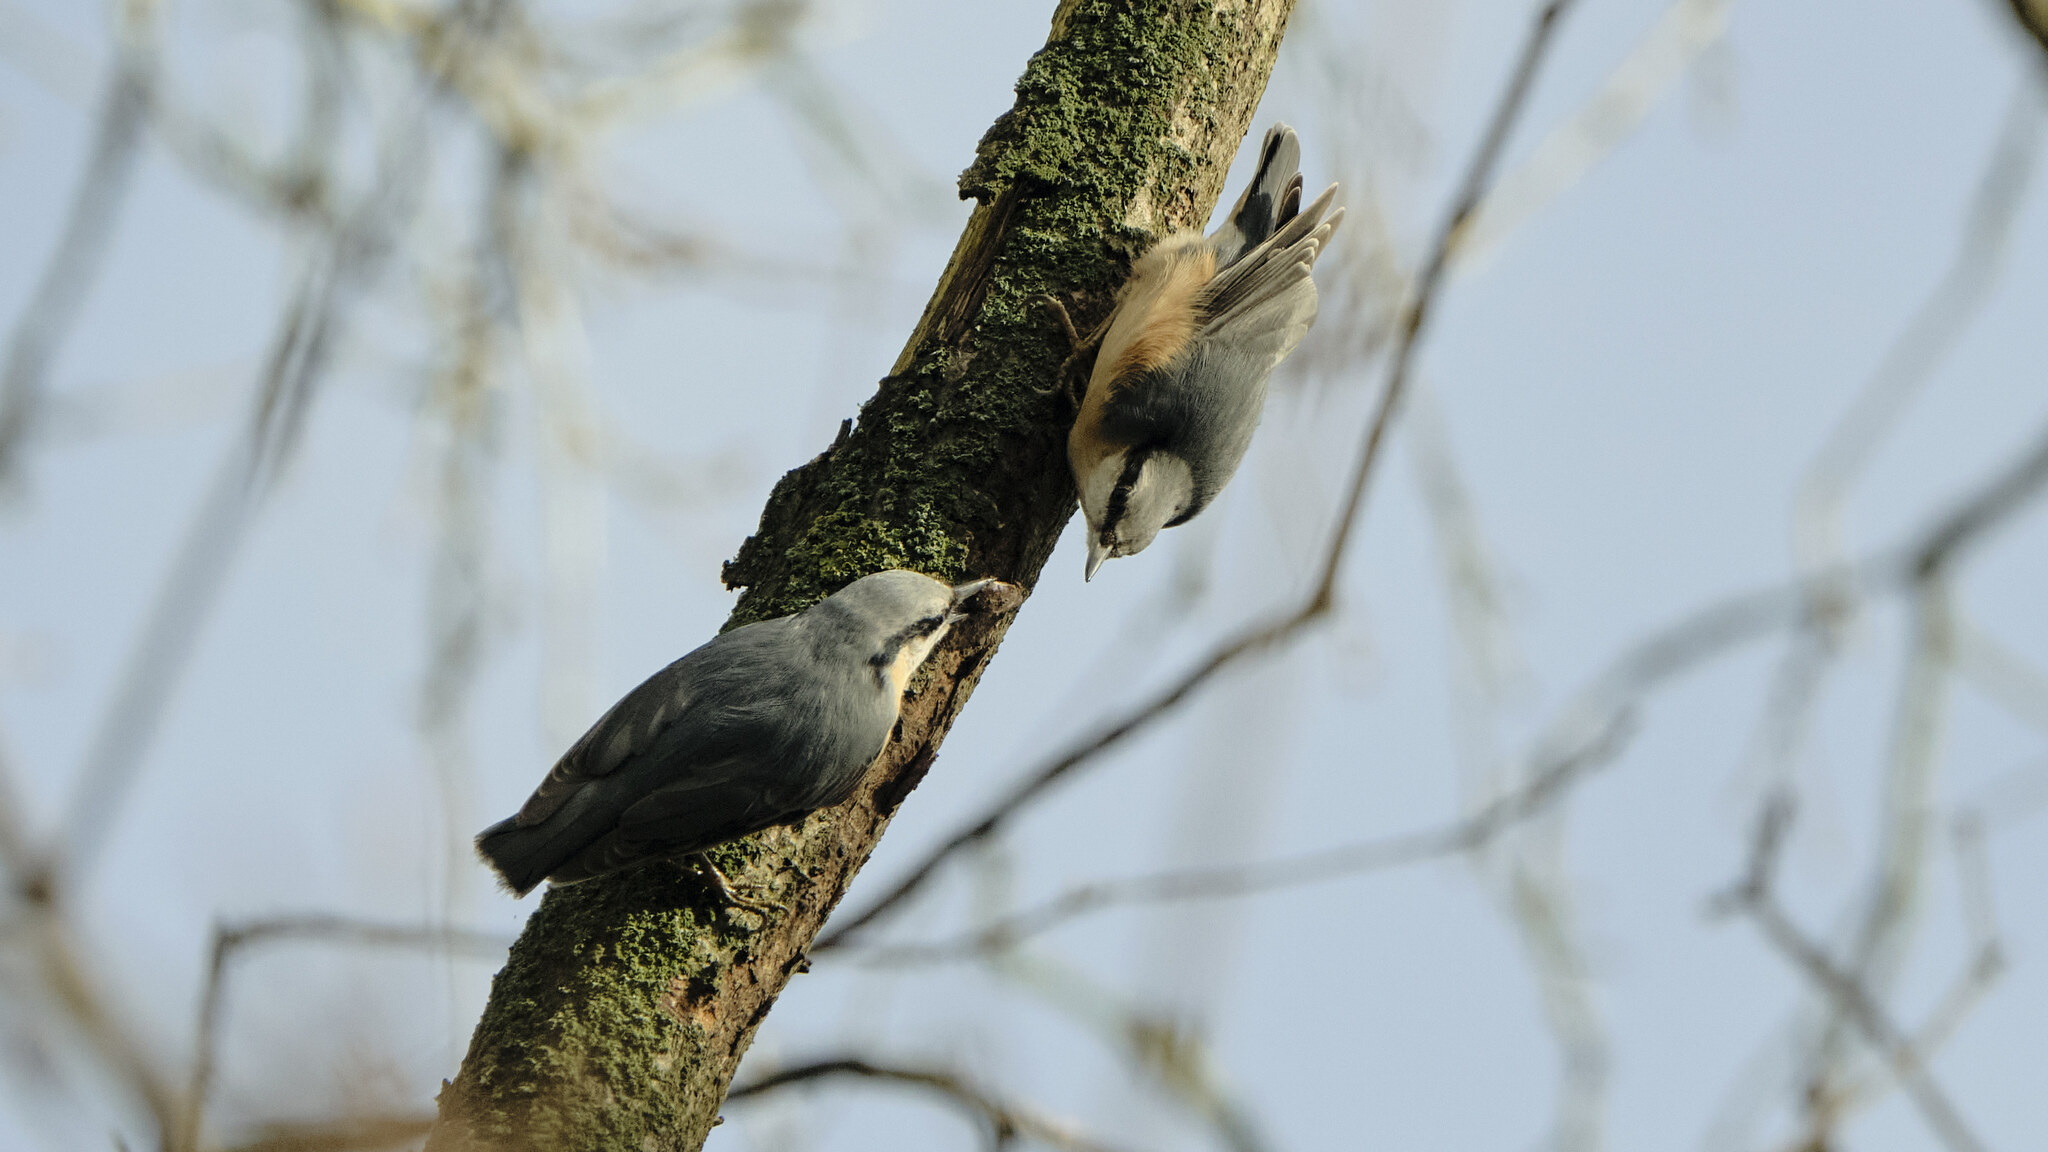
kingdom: Animalia
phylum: Chordata
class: Aves
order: Passeriformes
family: Sittidae
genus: Sitta
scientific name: Sitta europaea
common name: Eurasian nuthatch
